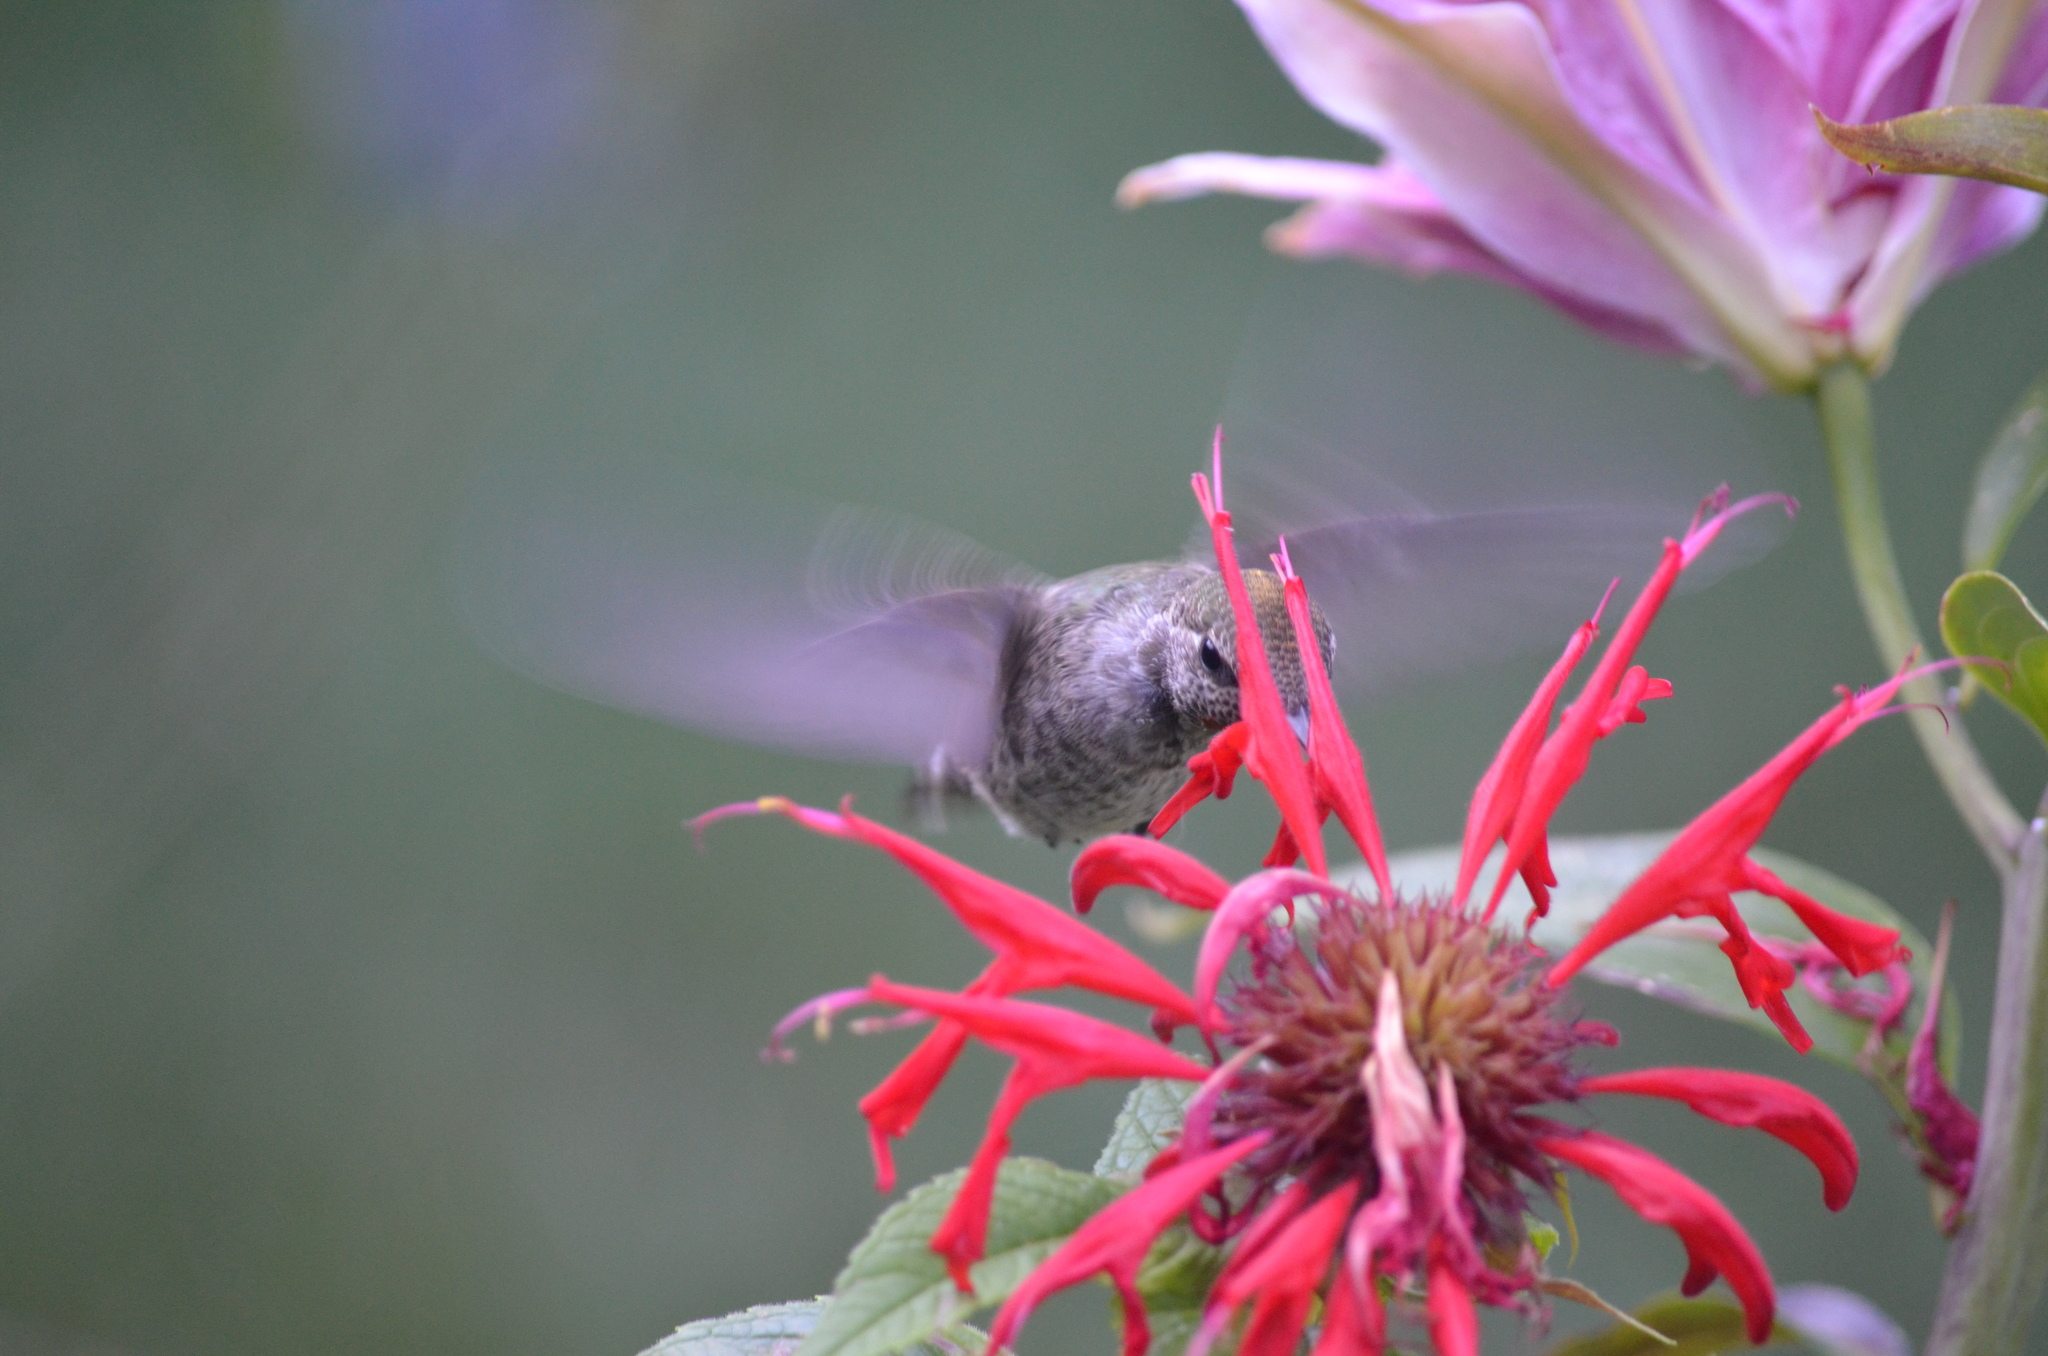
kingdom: Animalia
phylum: Chordata
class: Aves
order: Apodiformes
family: Trochilidae
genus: Calypte
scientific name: Calypte anna
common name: Anna's hummingbird
